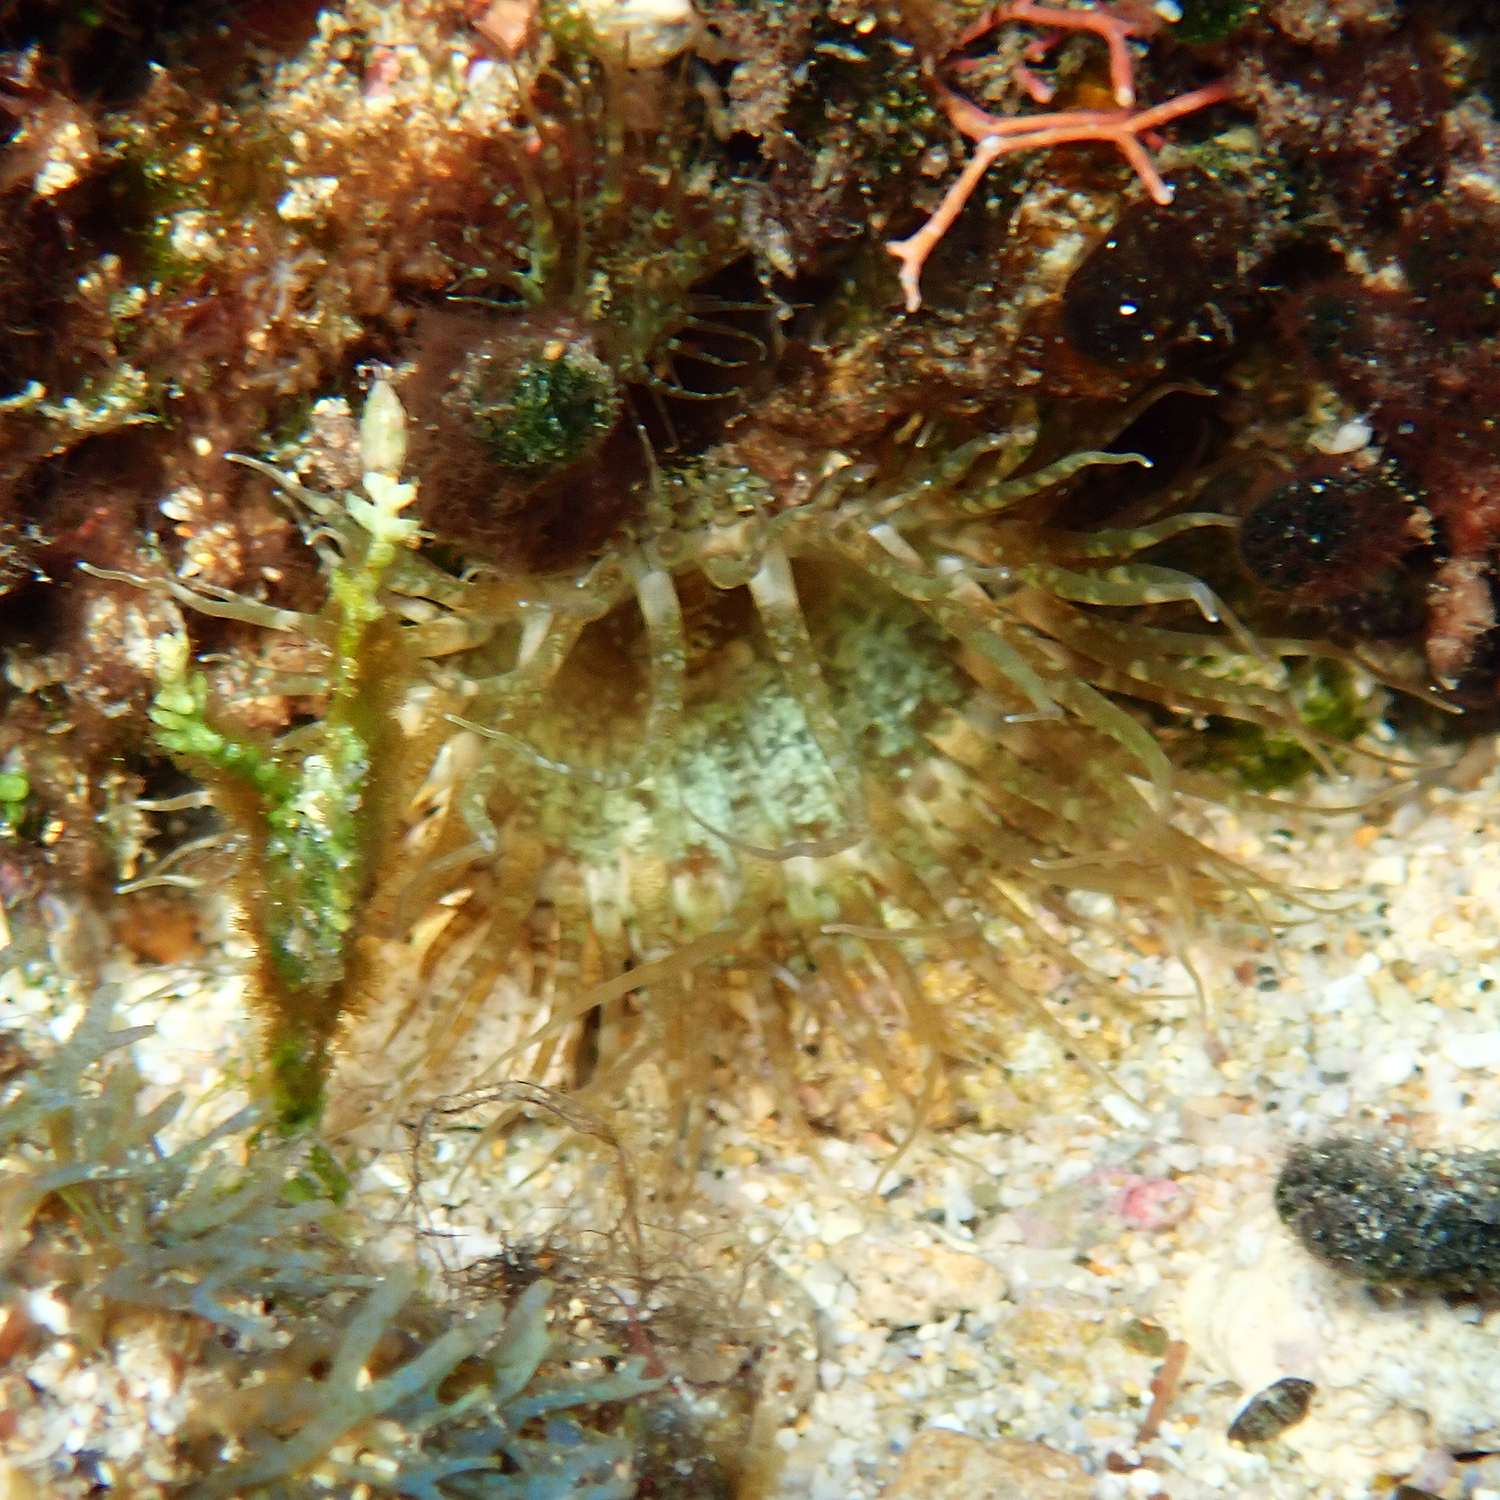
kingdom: Animalia
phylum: Cnidaria
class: Anthozoa
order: Actiniaria
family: Aiptasiidae
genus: Exaiptasia
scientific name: Exaiptasia diaphana
